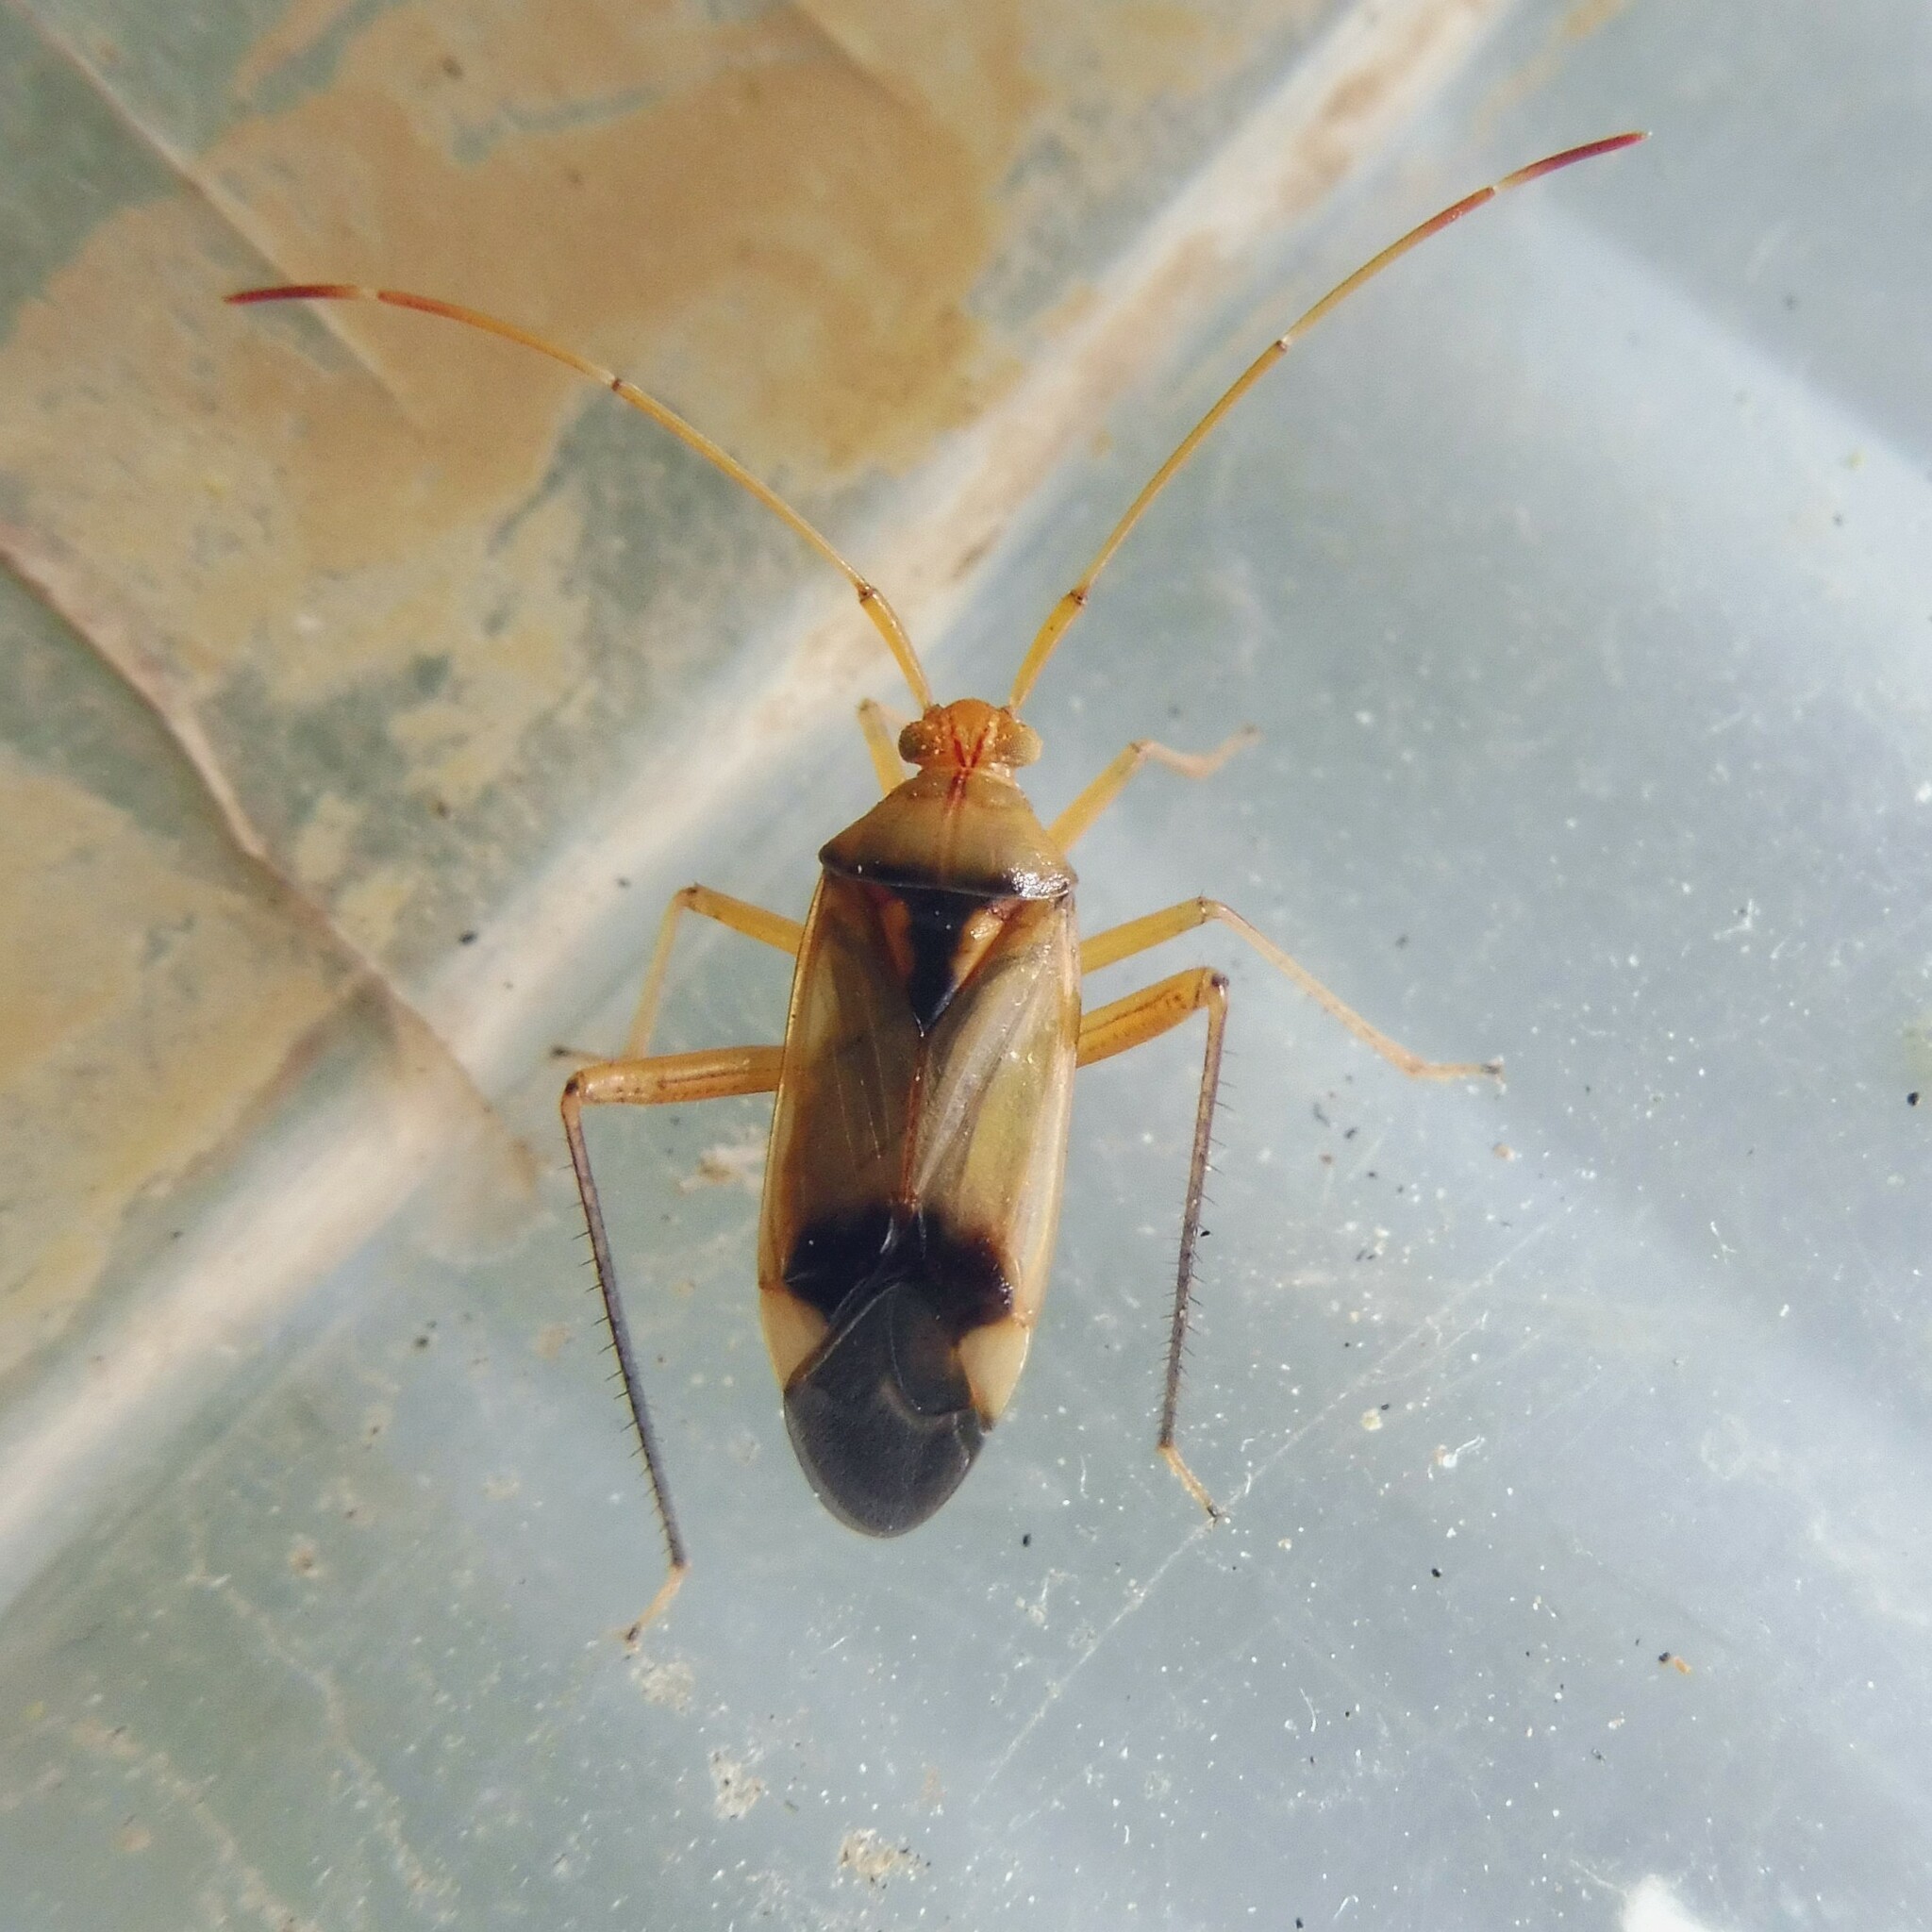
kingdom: Animalia
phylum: Arthropoda
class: Insecta
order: Hemiptera
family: Miridae
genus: Megacoelum
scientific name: Megacoelum infusum
